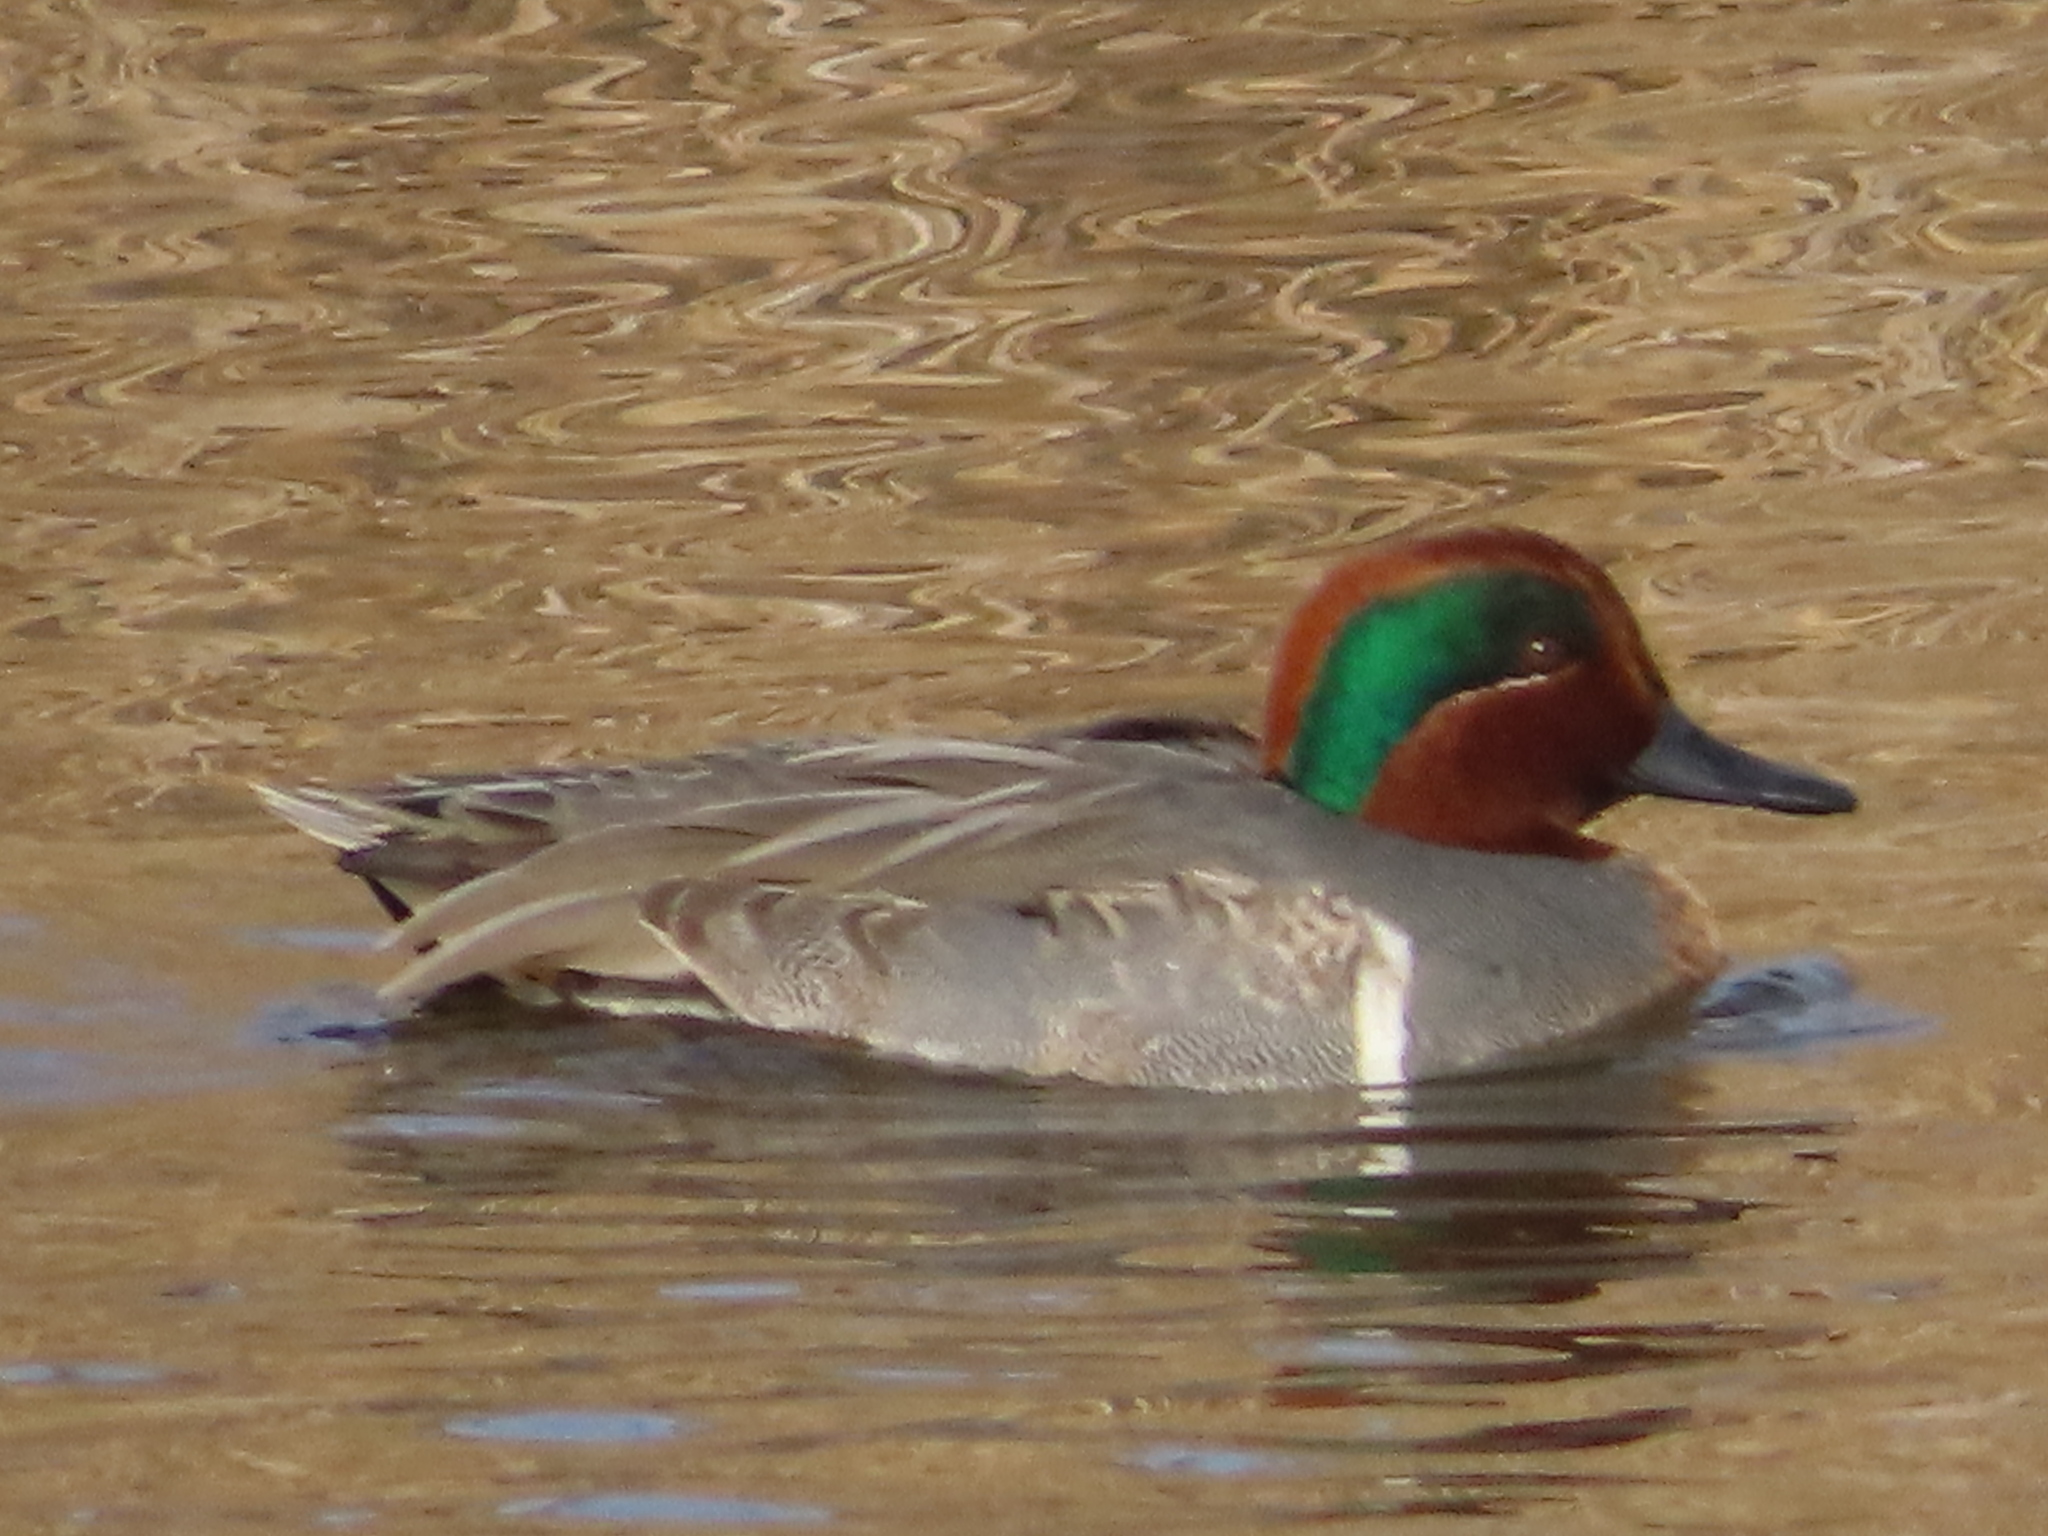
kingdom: Animalia
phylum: Chordata
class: Aves
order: Anseriformes
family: Anatidae
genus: Anas
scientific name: Anas crecca
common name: Eurasian teal
